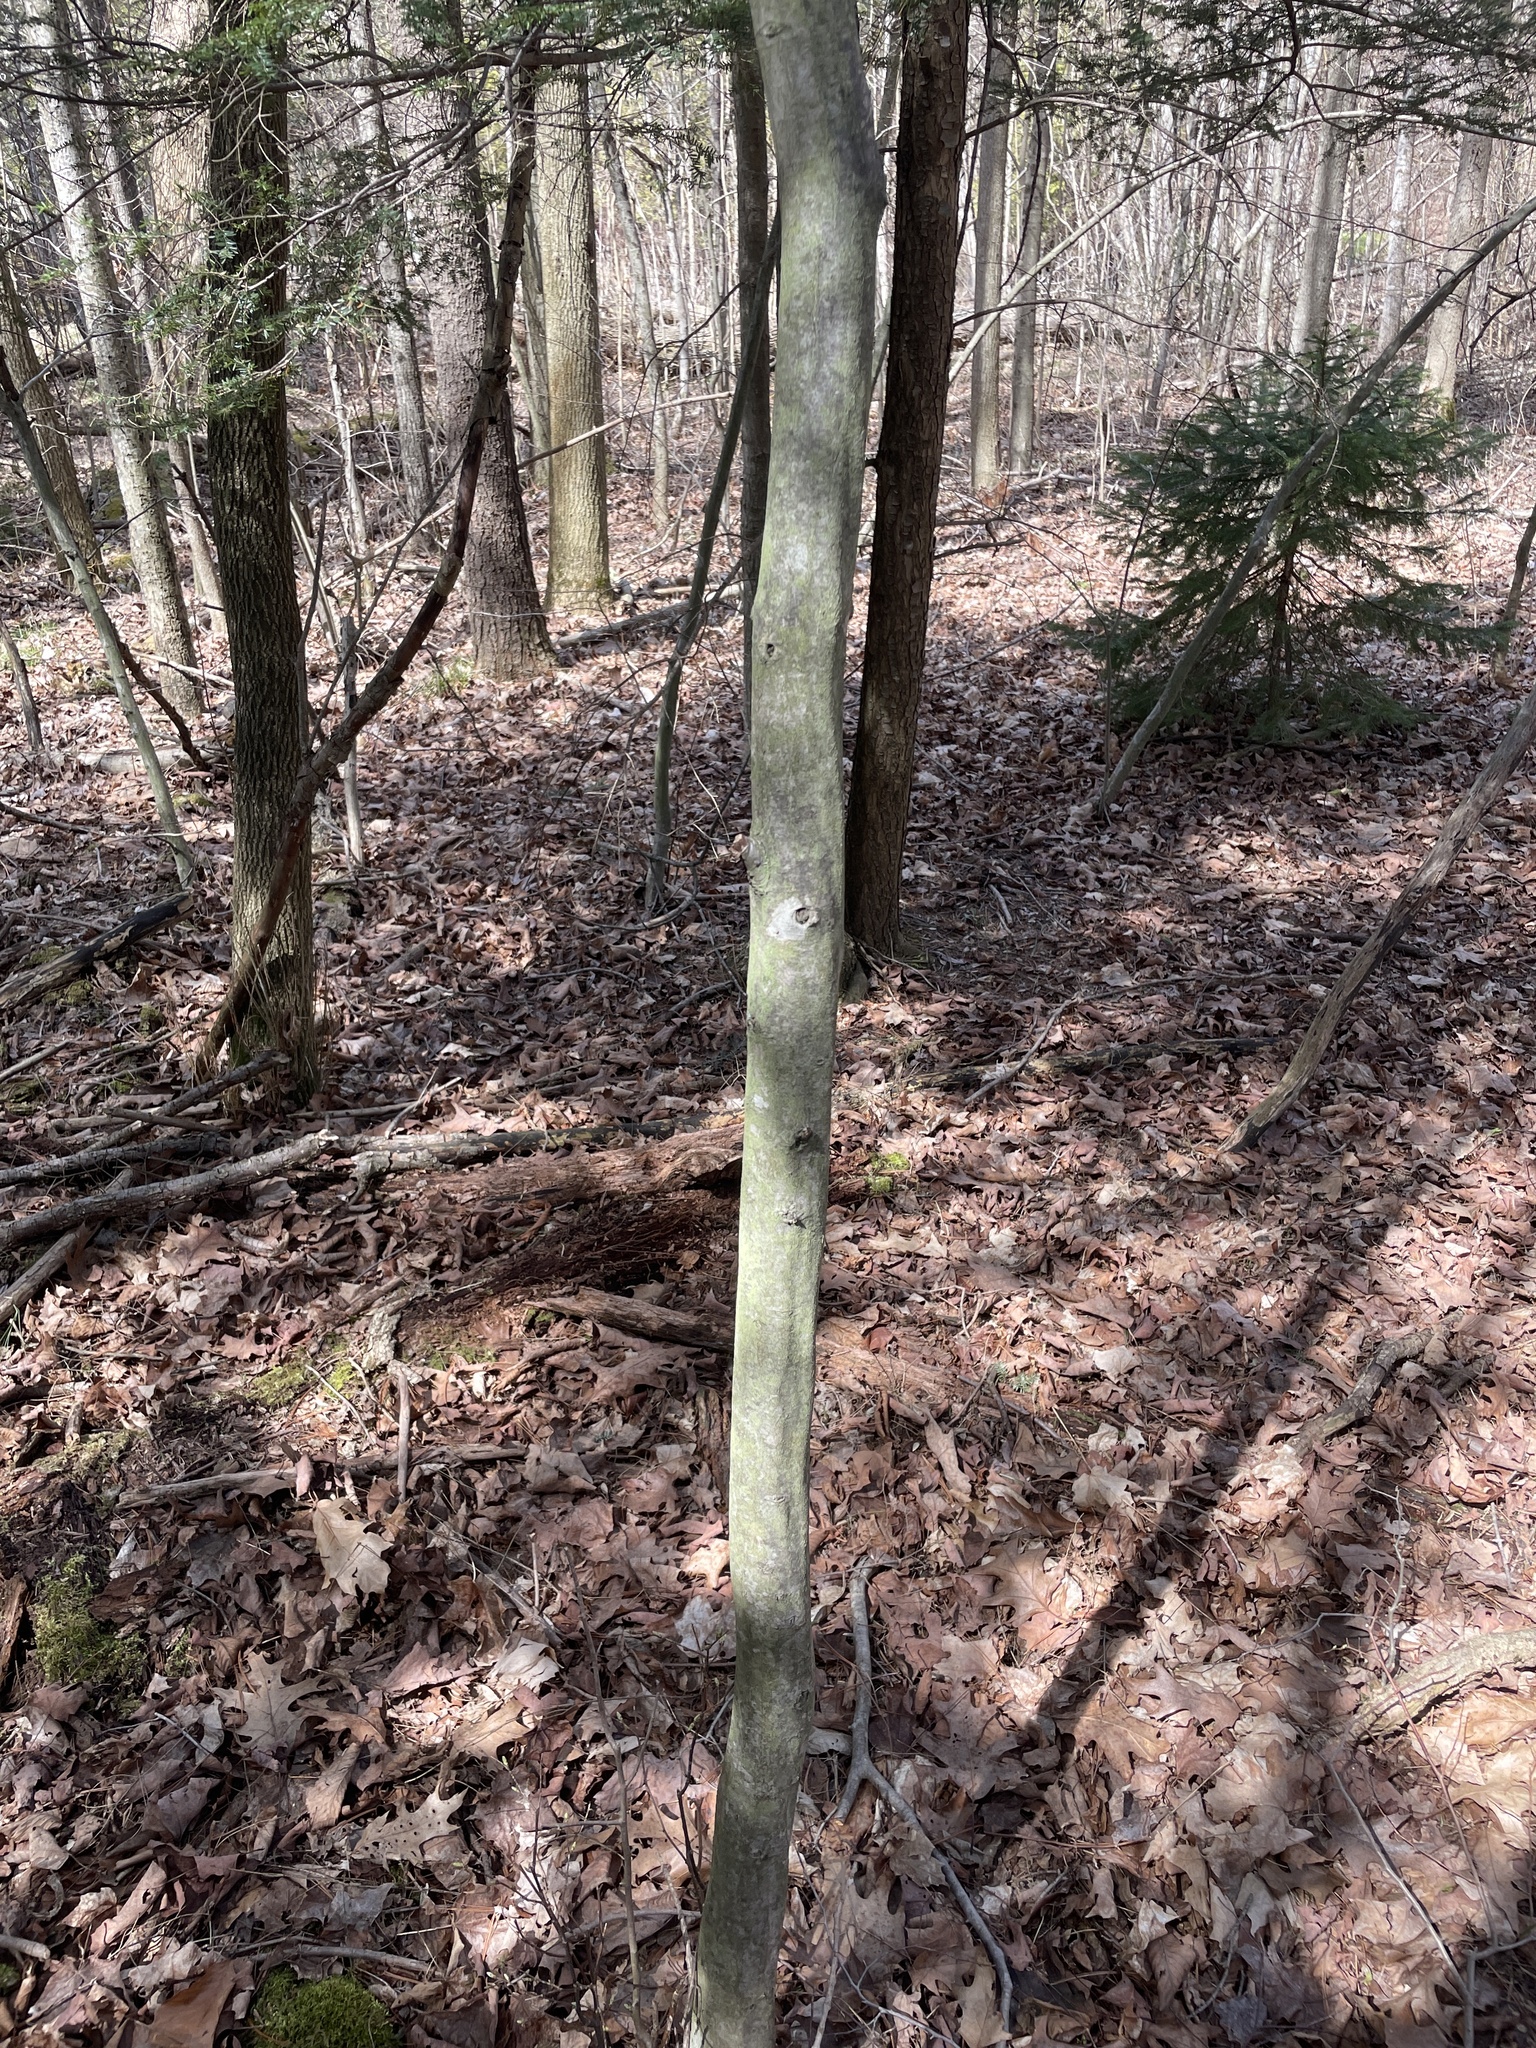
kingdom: Plantae
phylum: Tracheophyta
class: Magnoliopsida
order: Fagales
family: Betulaceae
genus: Carpinus
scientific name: Carpinus caroliniana
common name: American hornbeam
